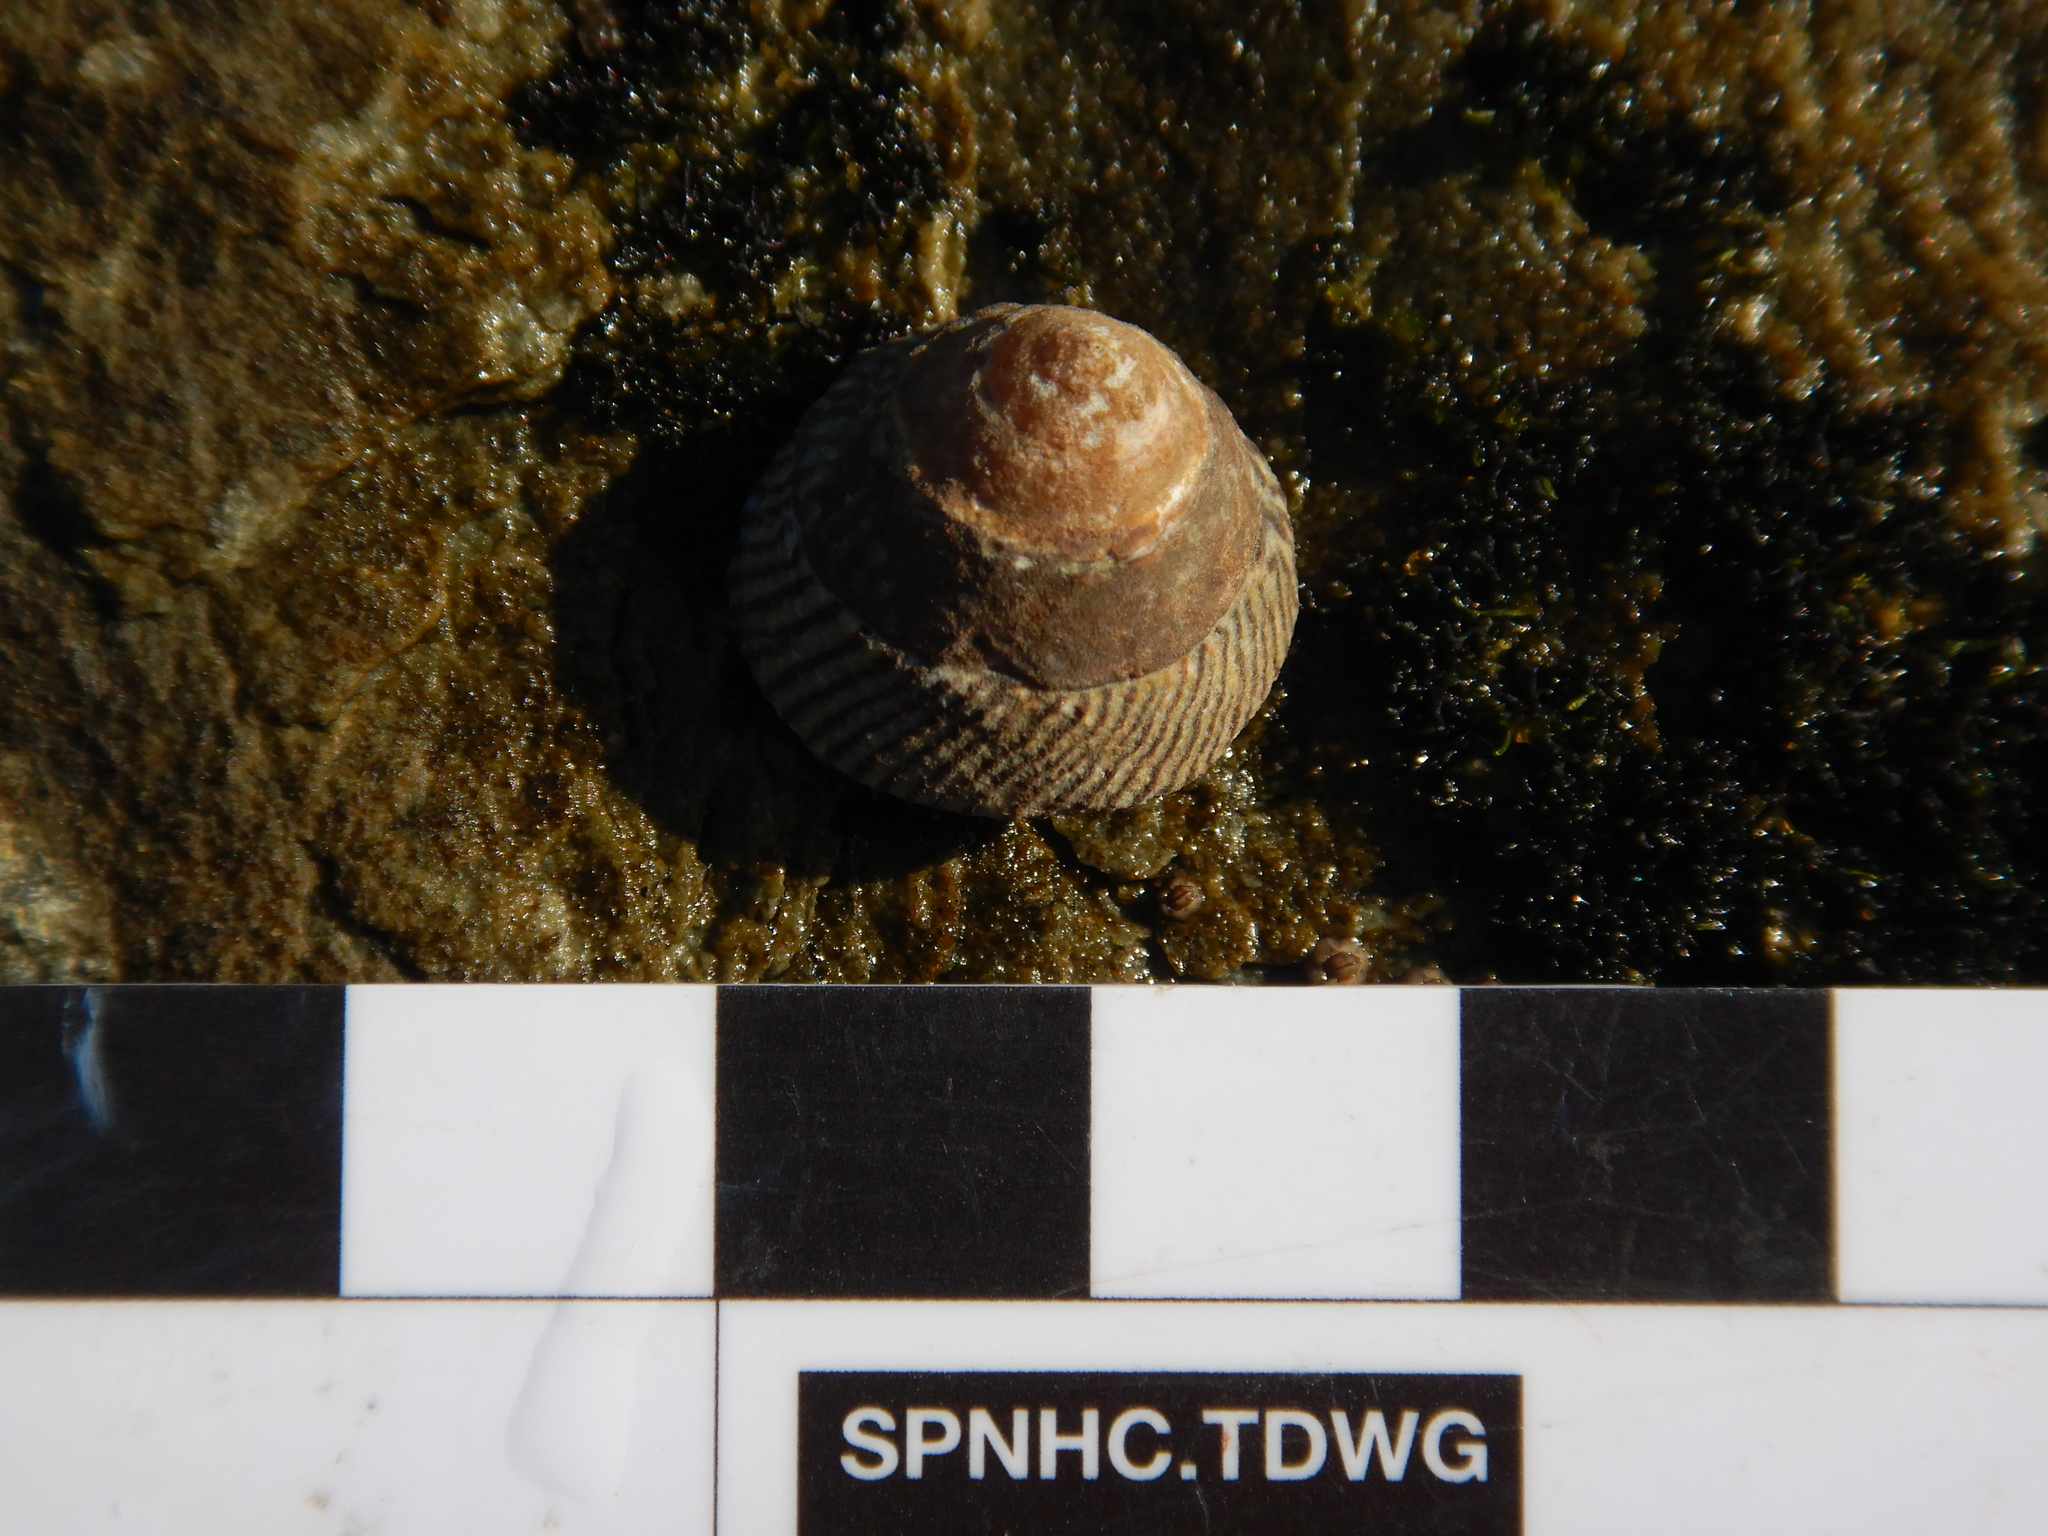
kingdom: Animalia
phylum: Mollusca
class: Gastropoda
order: Littorinimorpha
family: Littorinidae
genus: Bembicium
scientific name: Bembicium nanum
